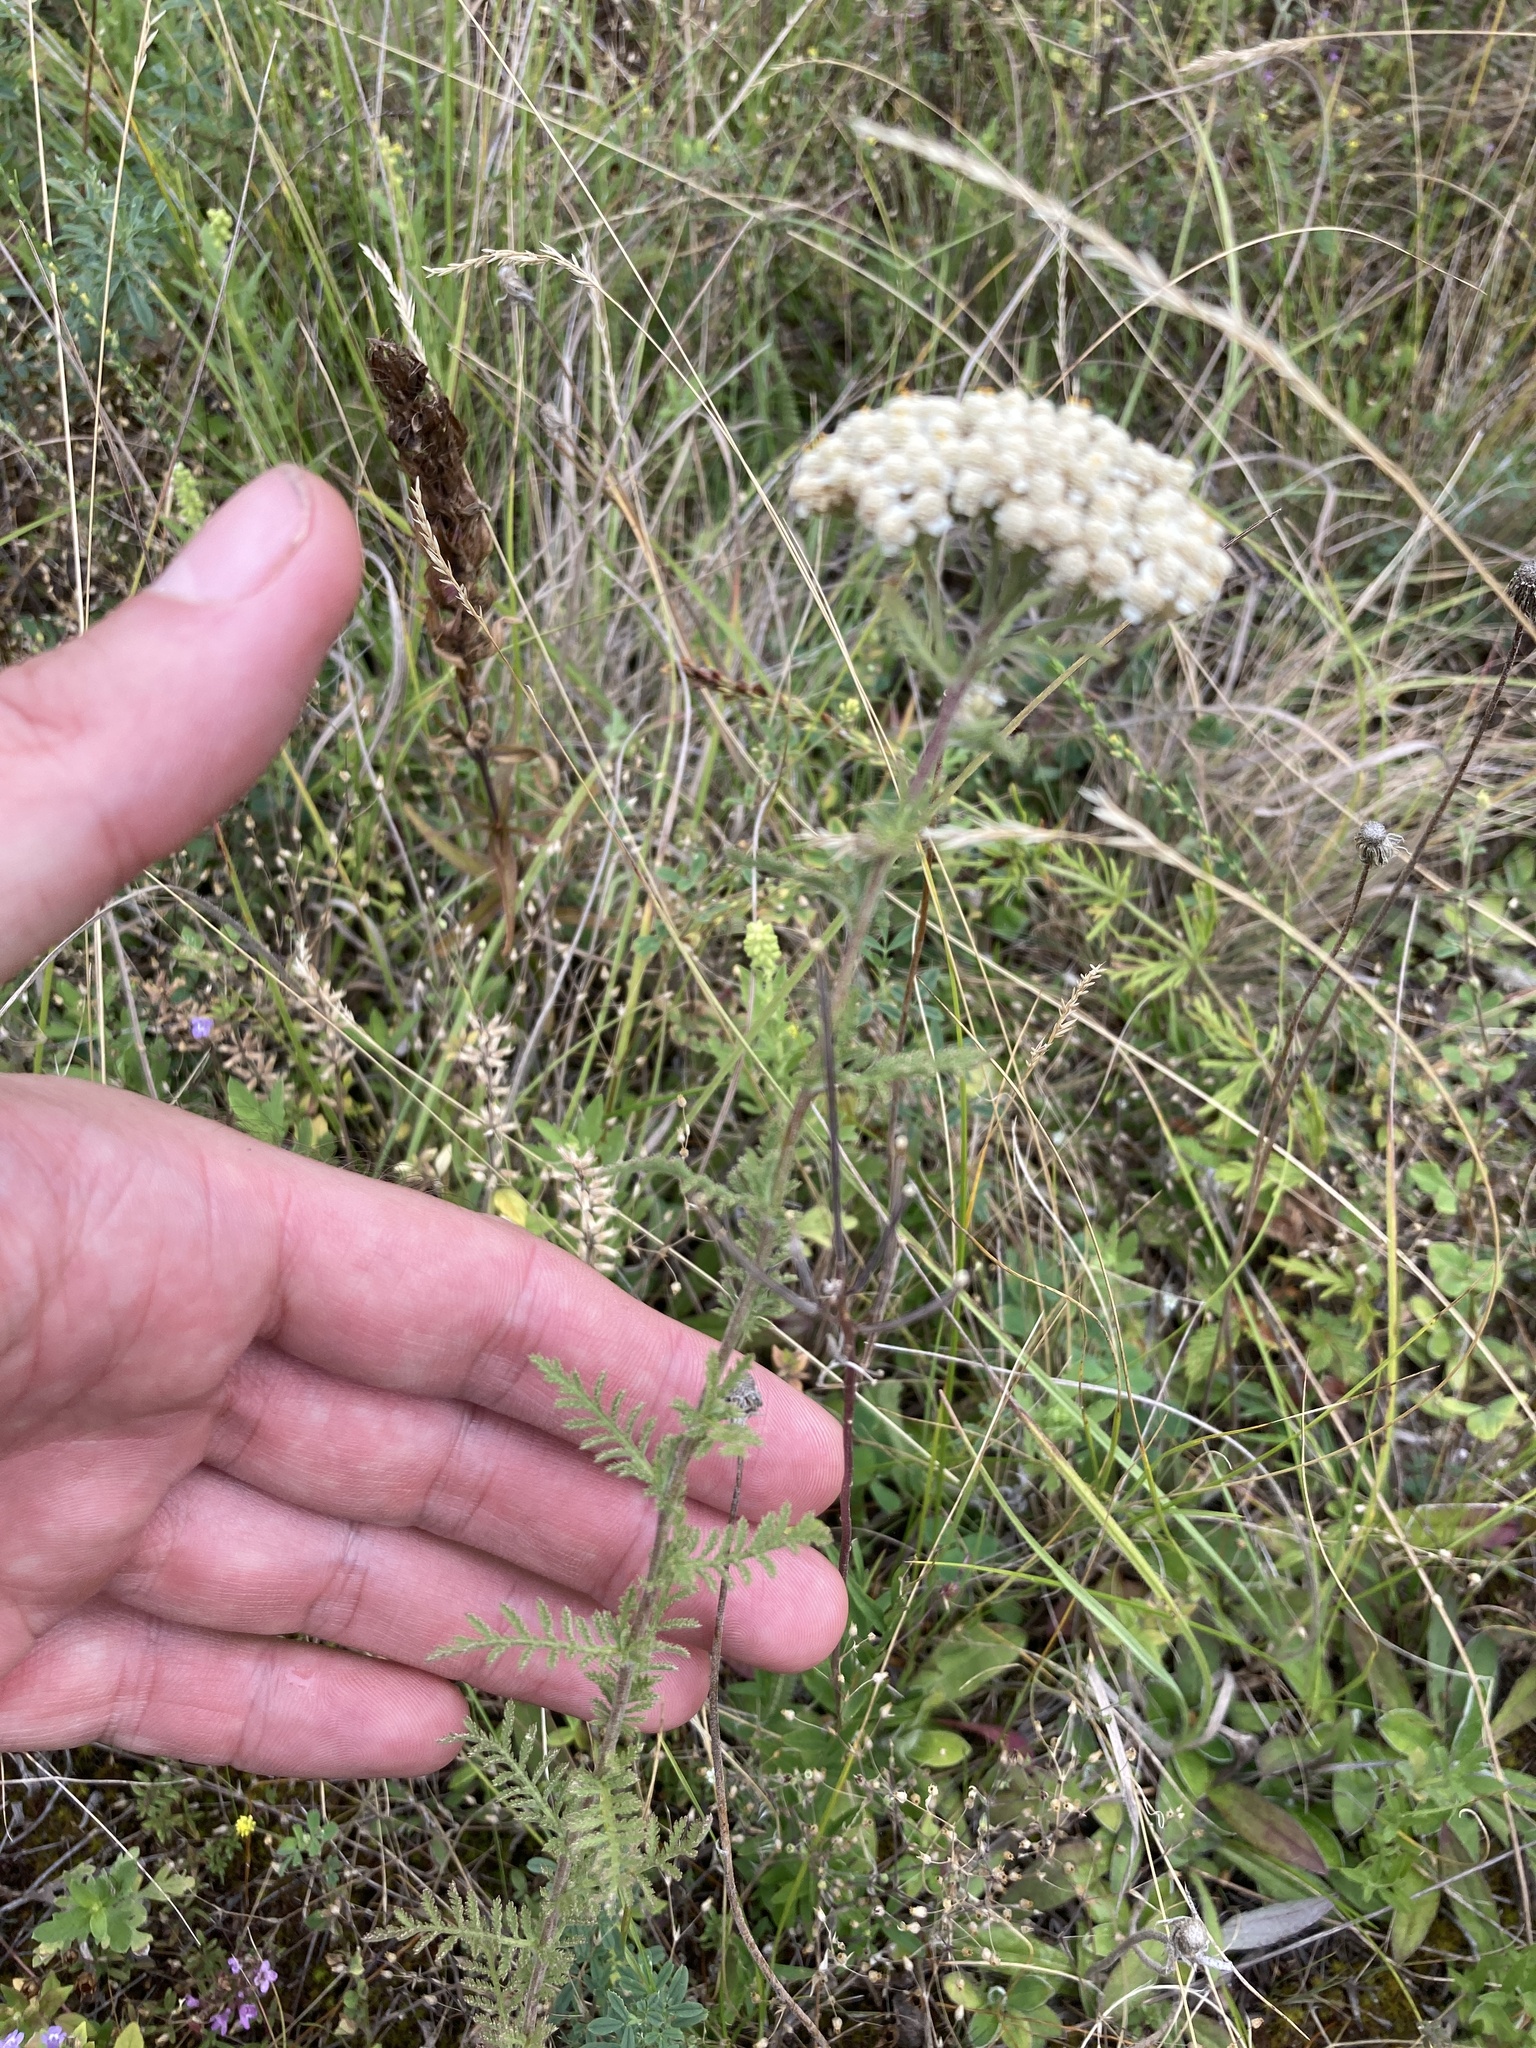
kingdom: Plantae
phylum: Tracheophyta
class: Magnoliopsida
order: Asterales
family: Asteraceae
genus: Achillea
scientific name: Achillea nobilis
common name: Noble yarrow
